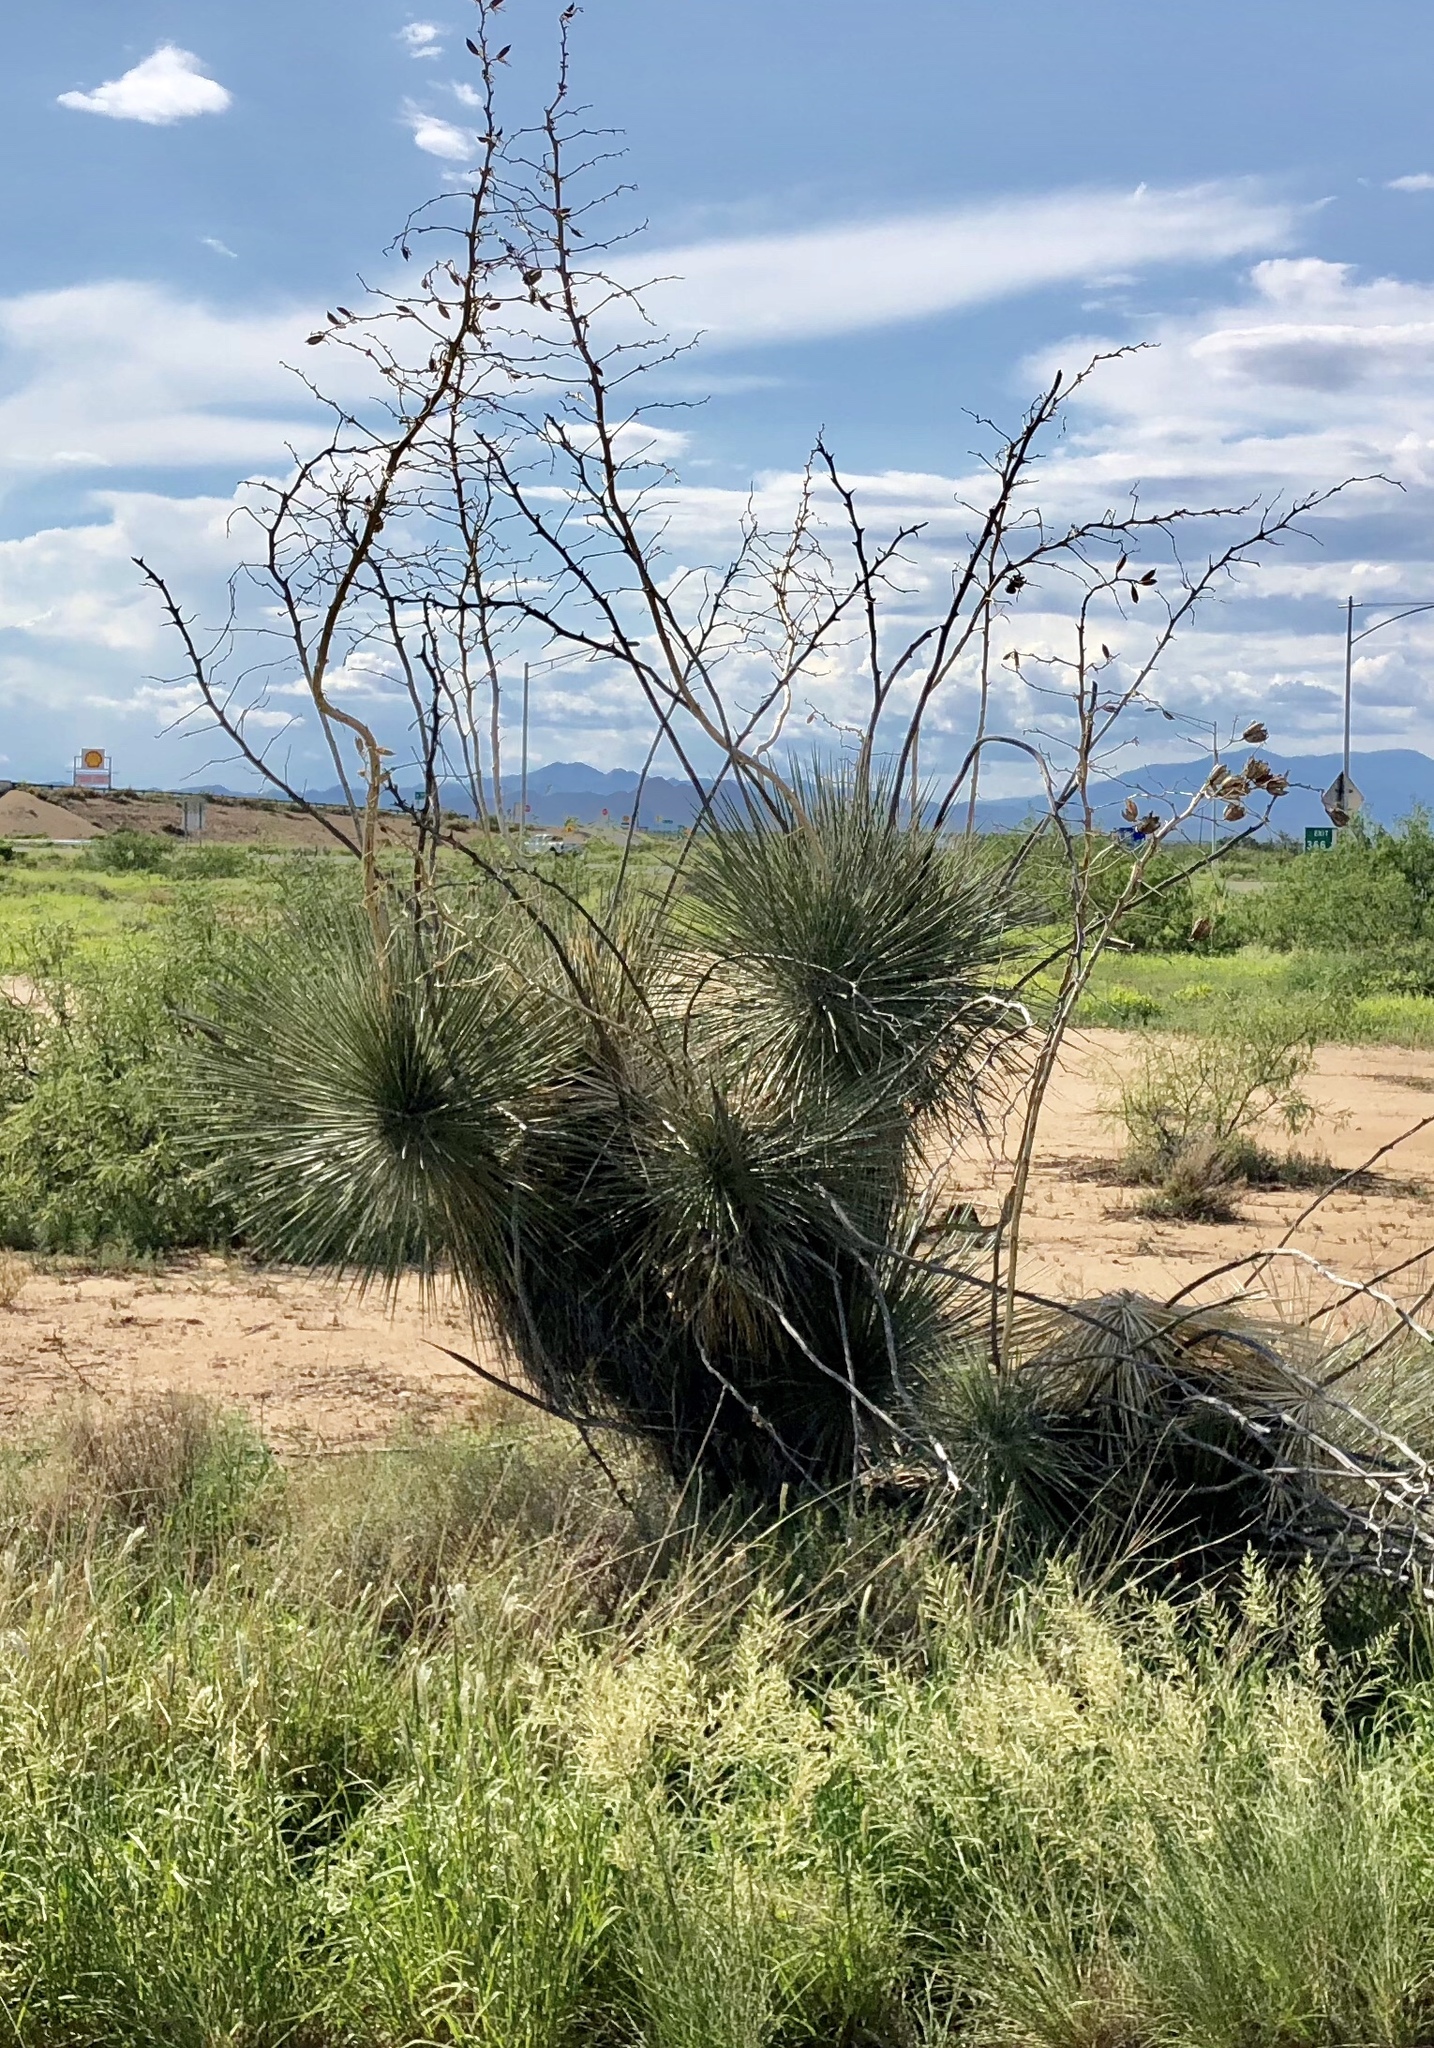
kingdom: Plantae
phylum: Tracheophyta
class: Liliopsida
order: Asparagales
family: Asparagaceae
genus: Yucca
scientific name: Yucca elata
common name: Palmella
